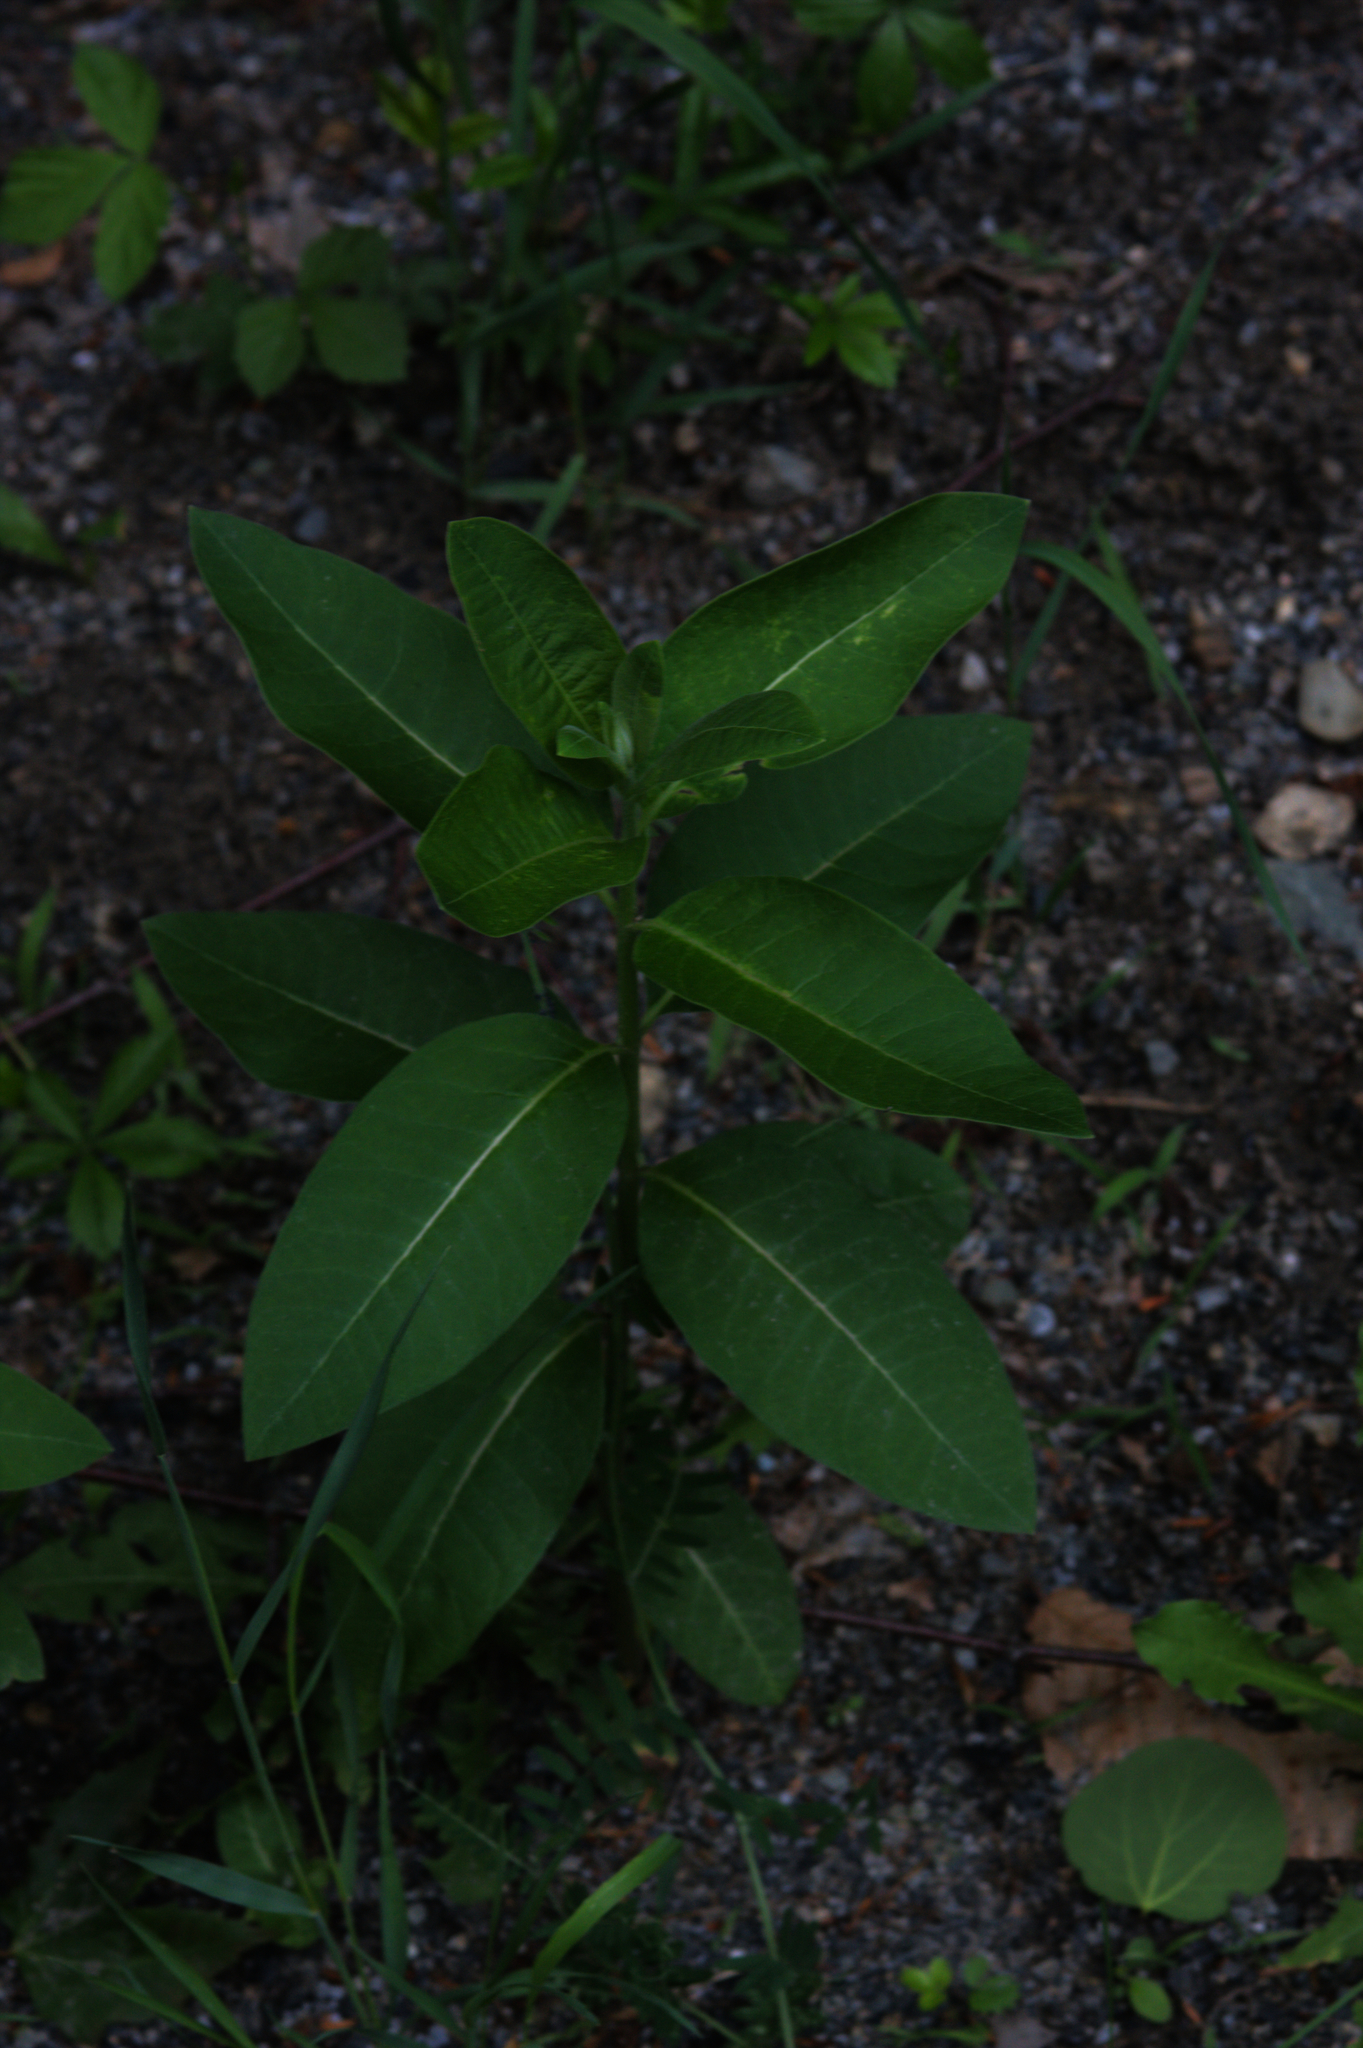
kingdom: Plantae
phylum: Tracheophyta
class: Magnoliopsida
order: Gentianales
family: Apocynaceae
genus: Asclepias
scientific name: Asclepias syriaca
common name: Common milkweed
